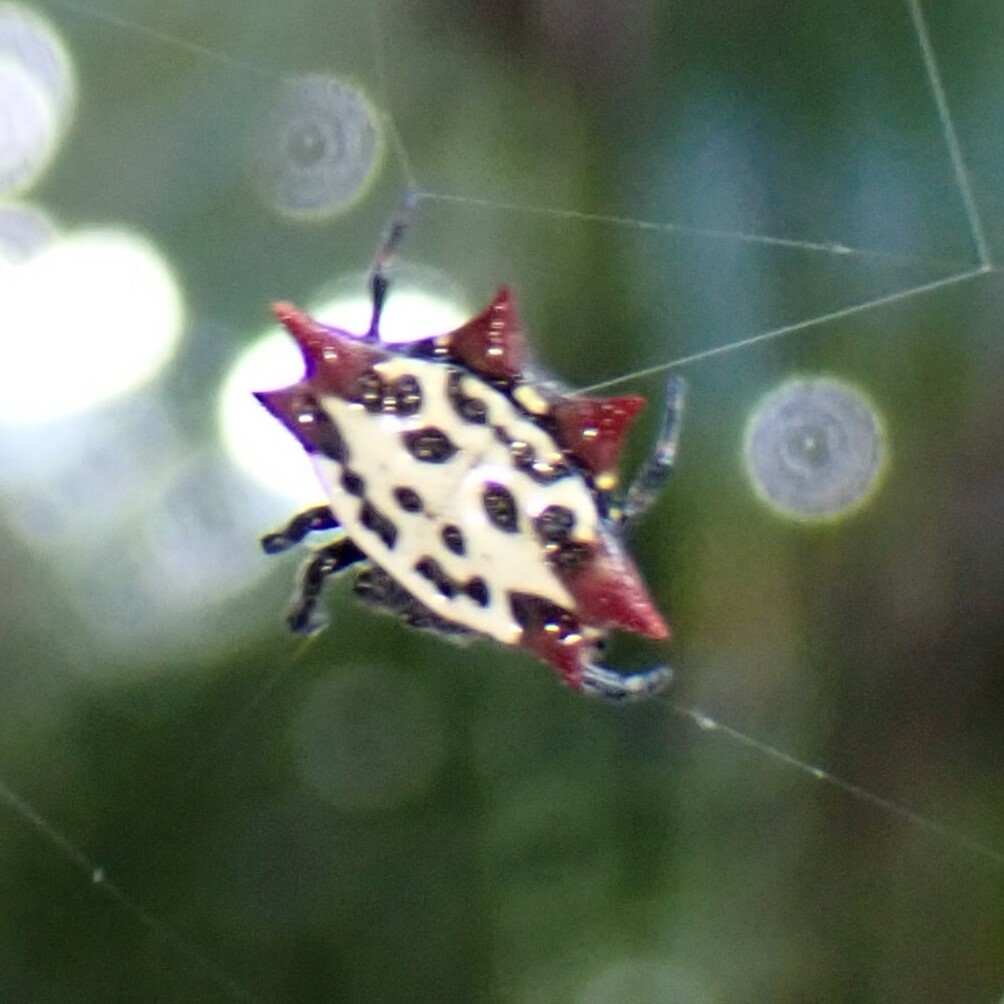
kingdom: Animalia
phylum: Arthropoda
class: Arachnida
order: Araneae
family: Araneidae
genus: Gasteracantha
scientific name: Gasteracantha cancriformis
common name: Orb weavers
